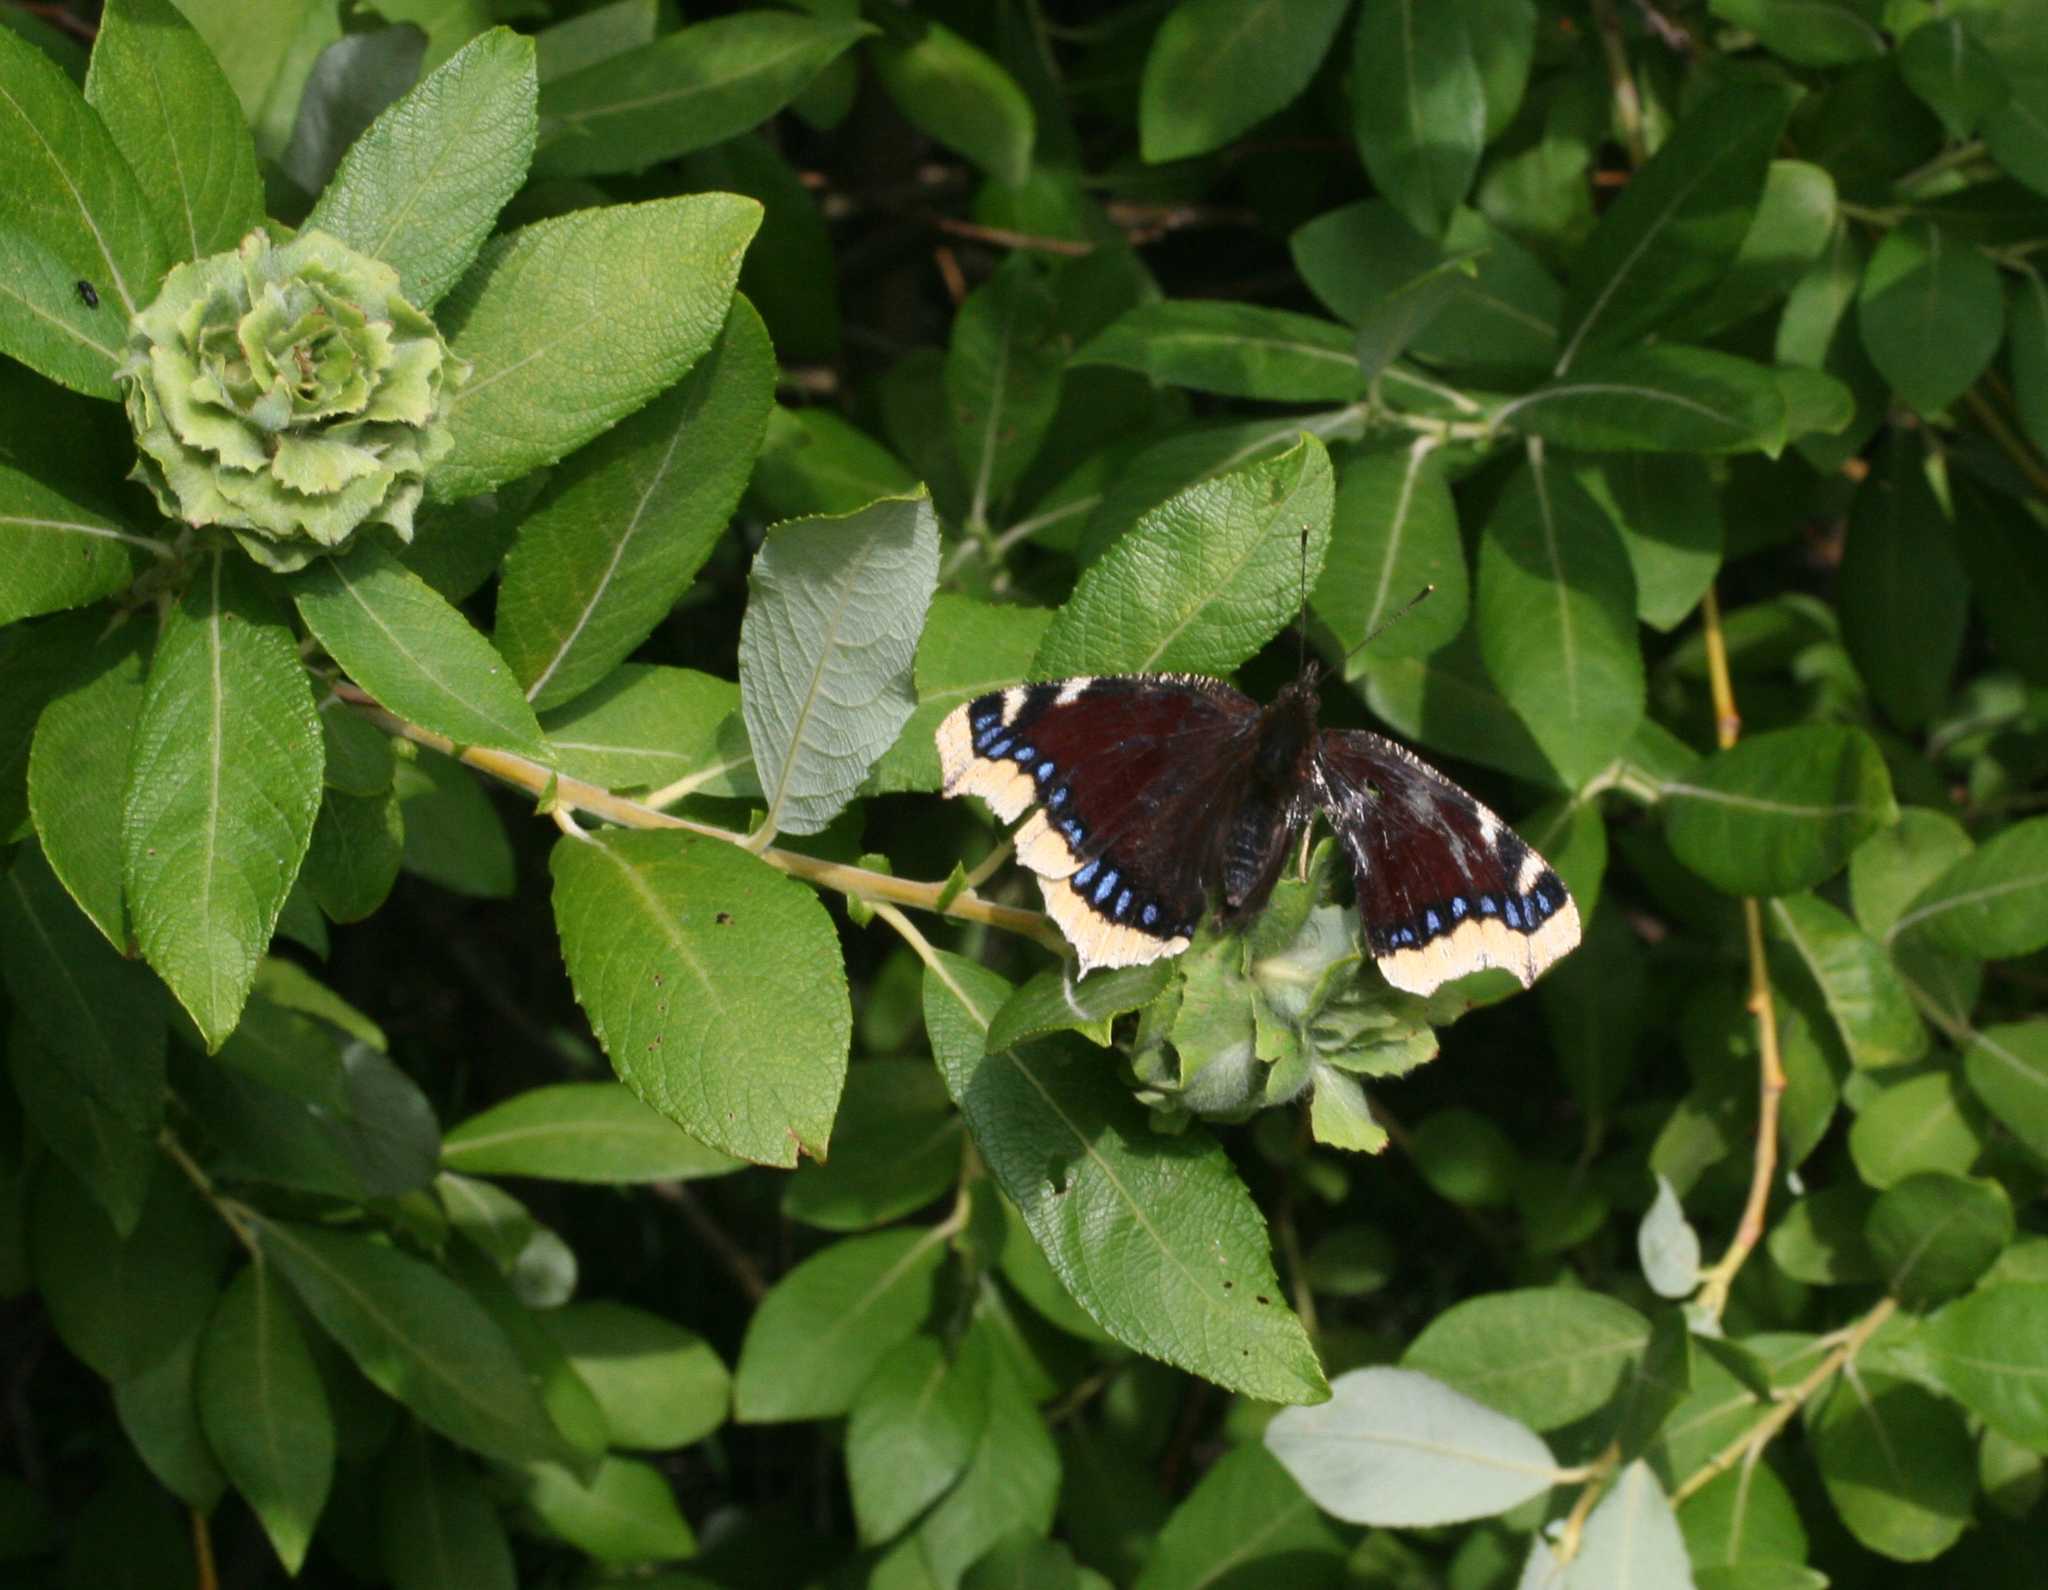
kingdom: Animalia
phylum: Arthropoda
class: Insecta
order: Lepidoptera
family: Nymphalidae
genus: Nymphalis
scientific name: Nymphalis antiopa
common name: Camberwell beauty
